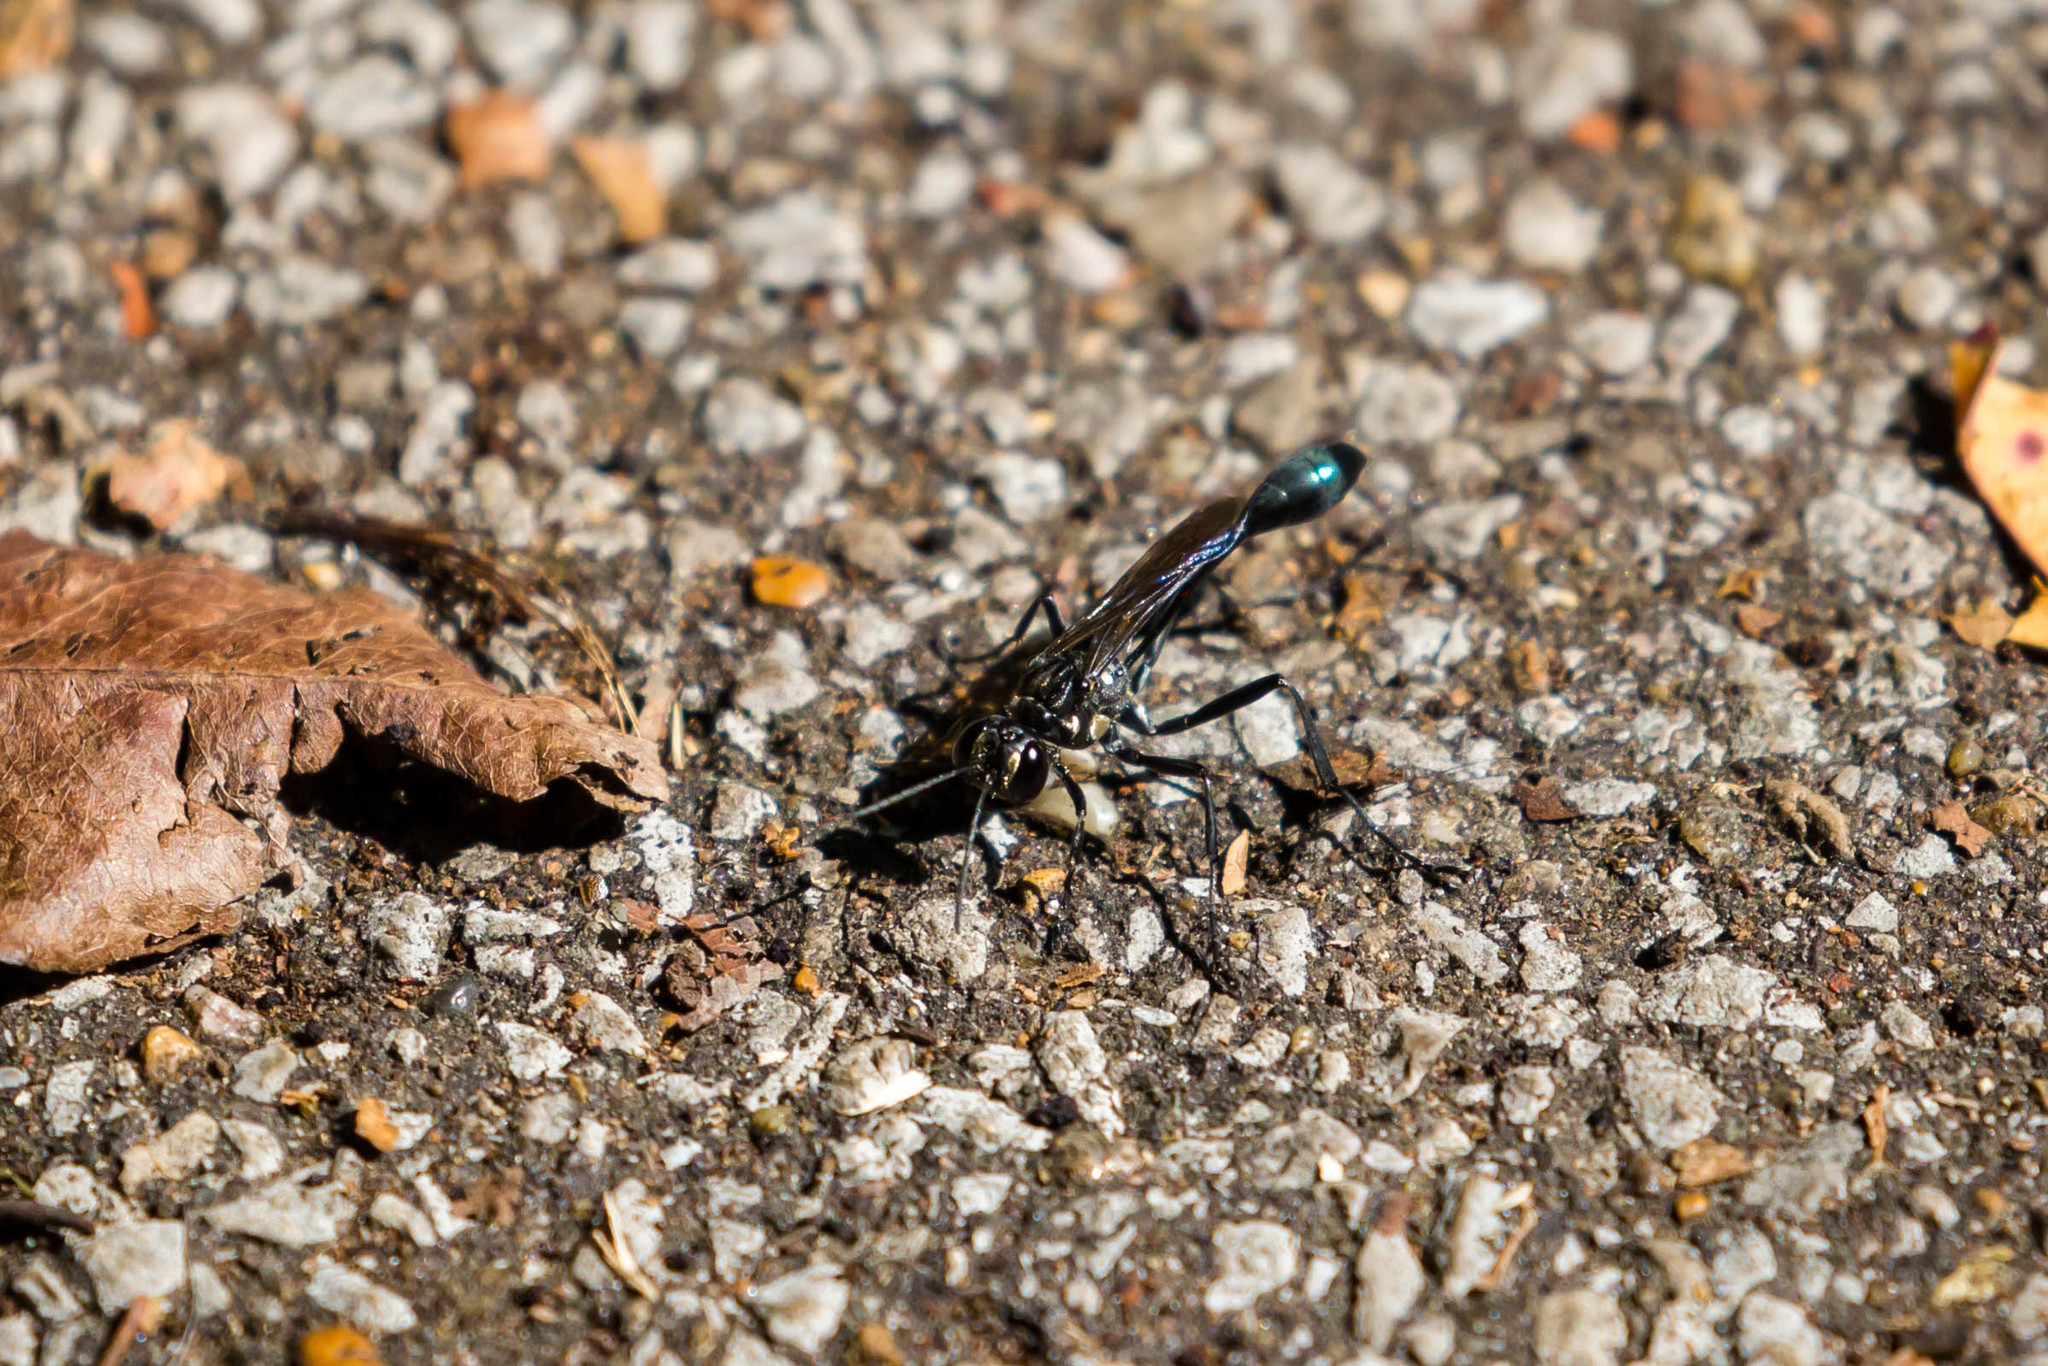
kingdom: Animalia
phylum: Arthropoda
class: Insecta
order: Hymenoptera
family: Sphecidae
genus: Eremnophila
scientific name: Eremnophila aureonotata
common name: Gold-marked thread-waisted wasp
